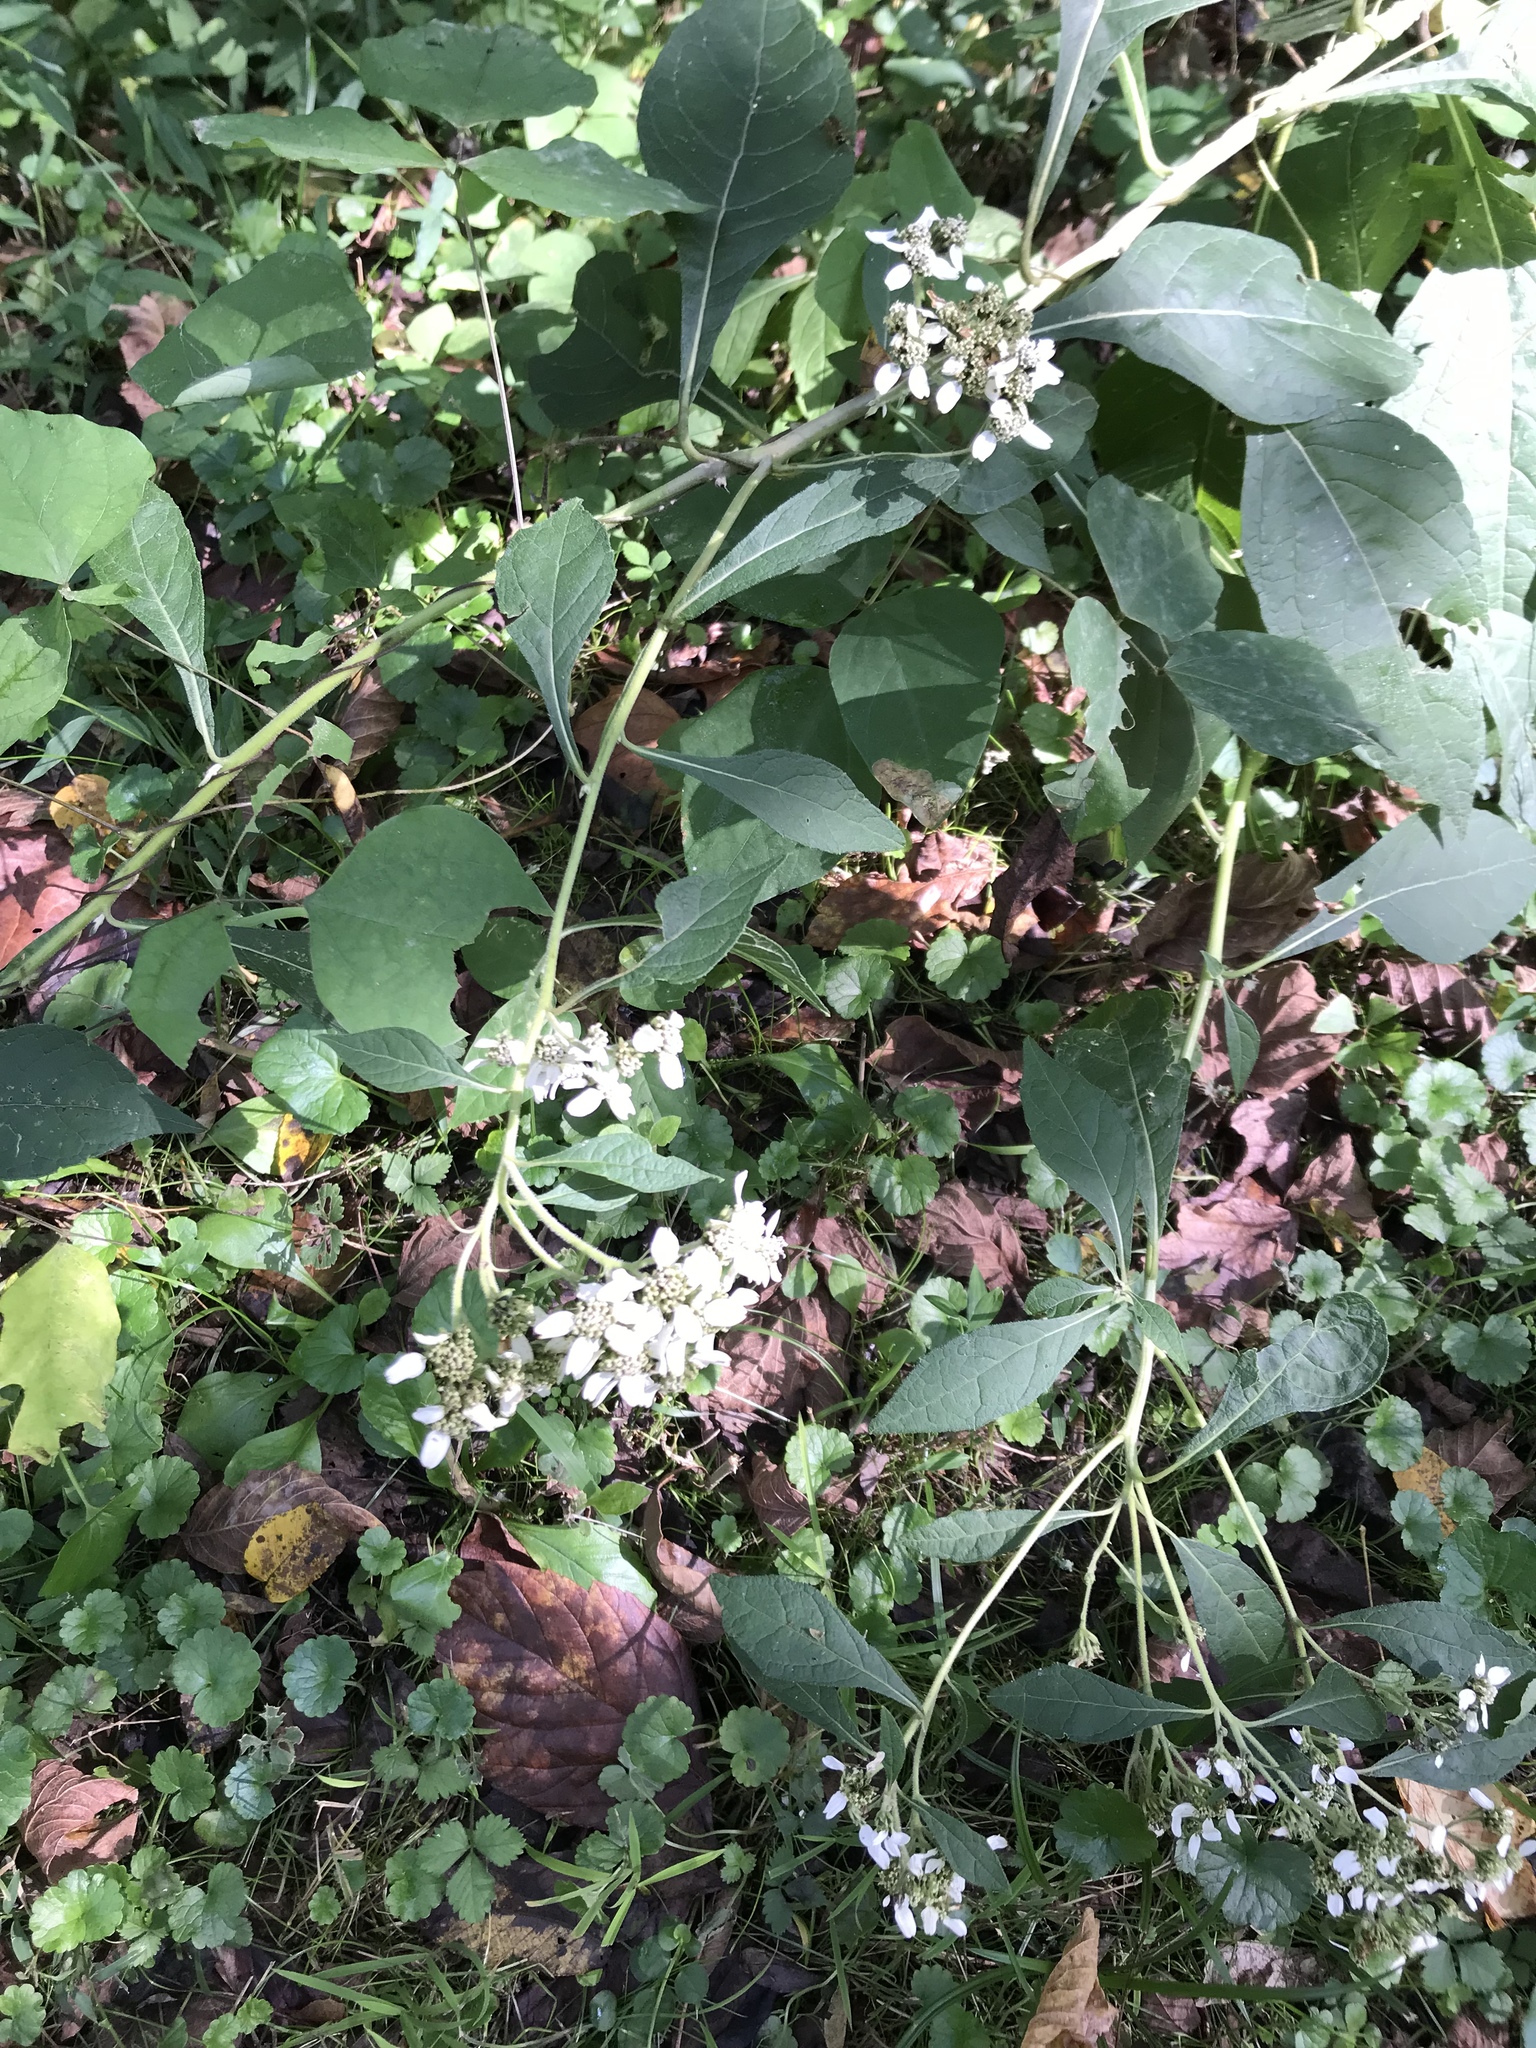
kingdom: Plantae
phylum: Tracheophyta
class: Magnoliopsida
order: Asterales
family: Asteraceae
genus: Verbesina
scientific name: Verbesina virginica
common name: Frostweed
